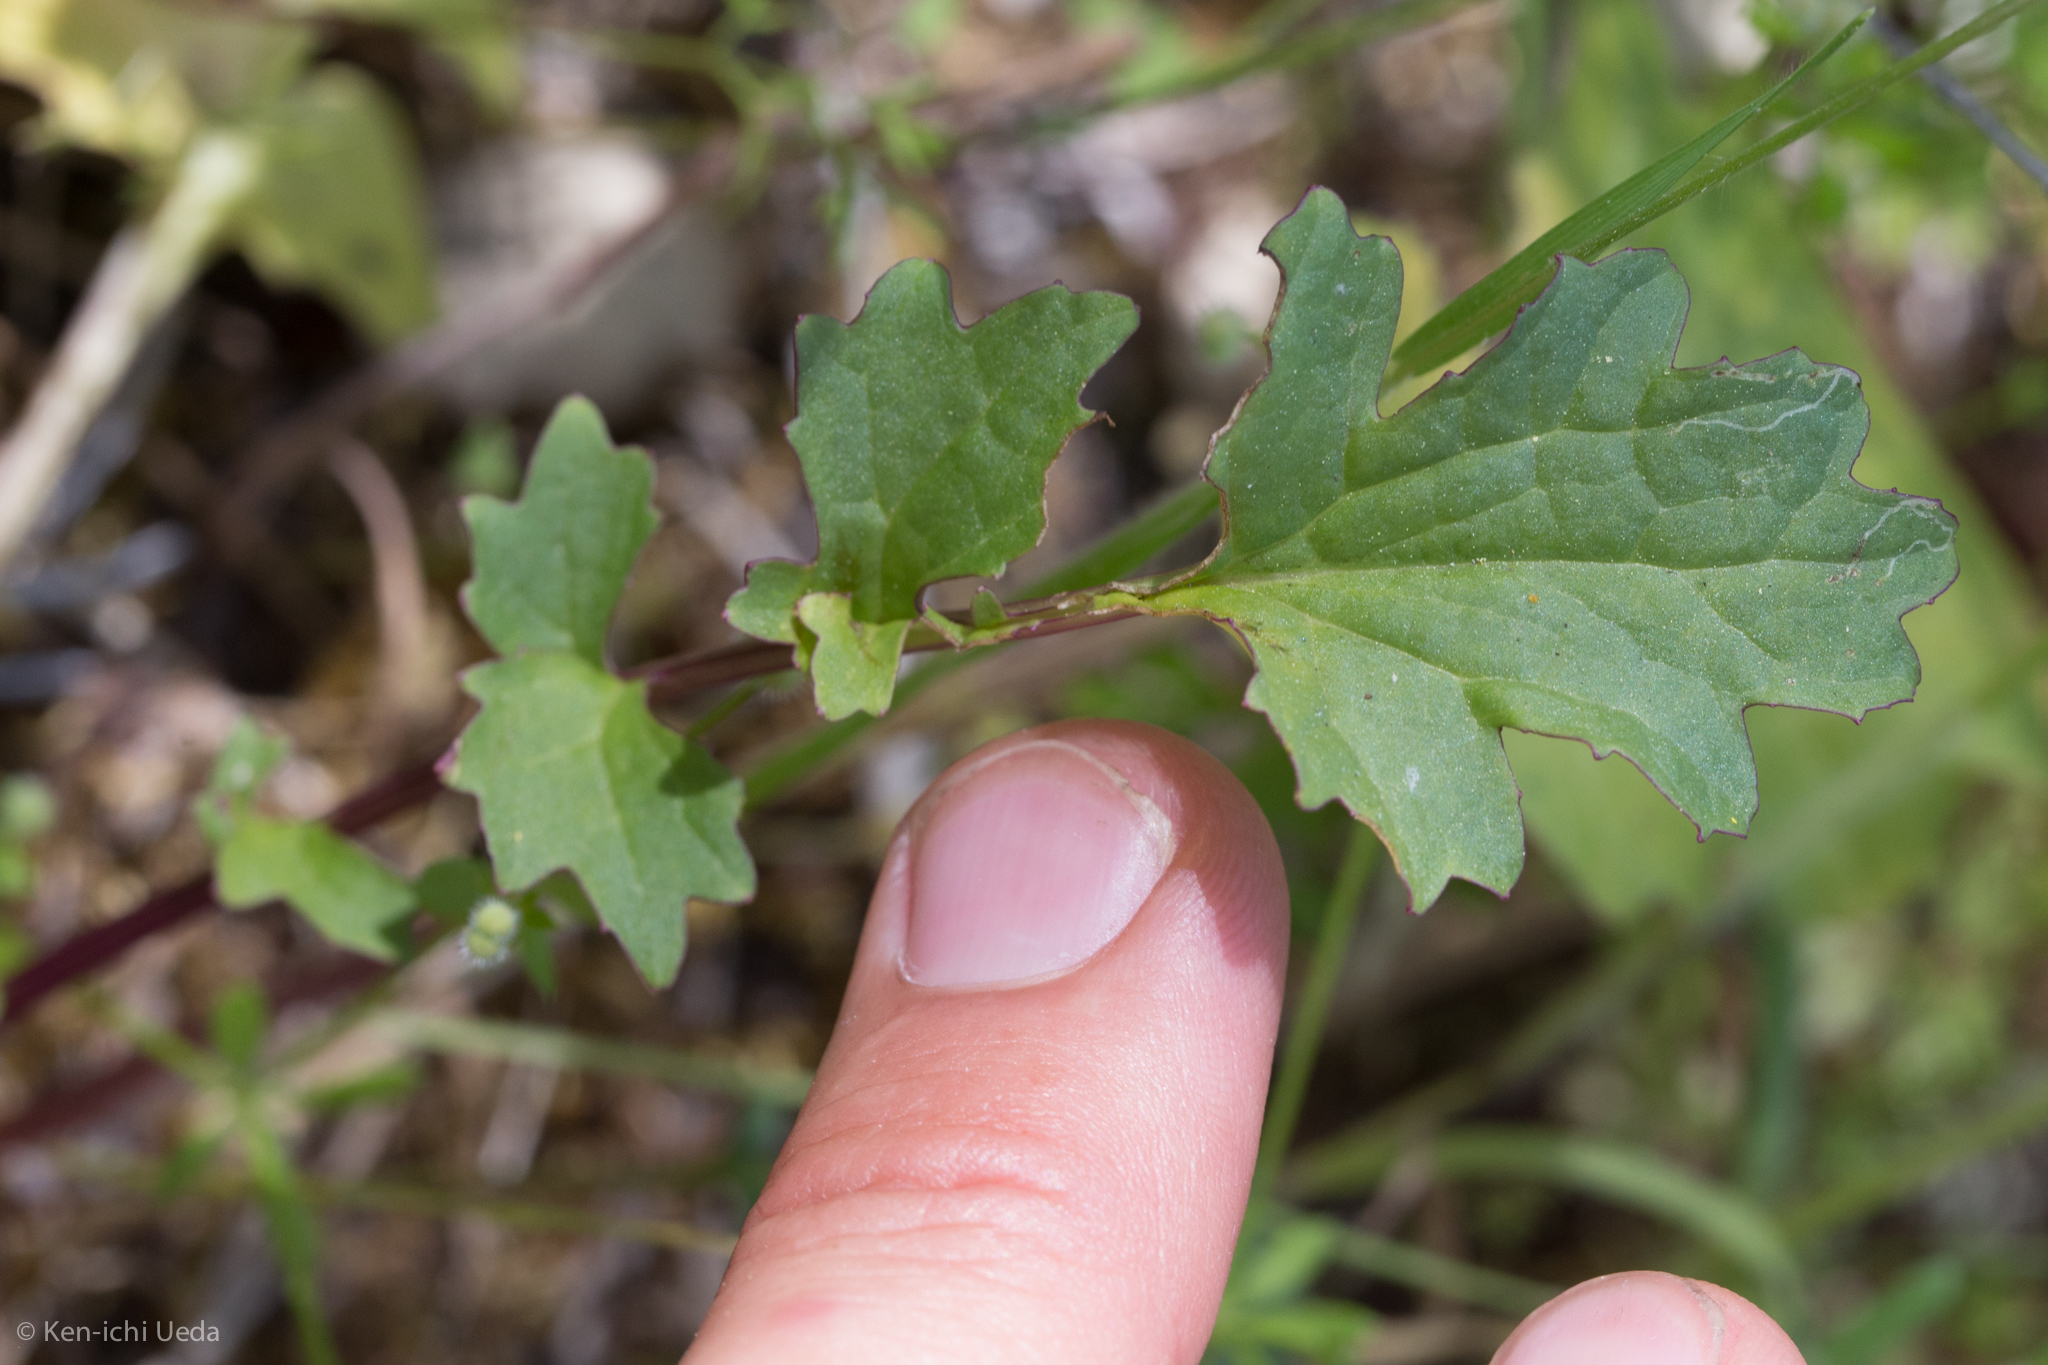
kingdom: Plantae
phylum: Tracheophyta
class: Magnoliopsida
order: Asterales
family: Asteraceae
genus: Packera
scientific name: Packera breweri
